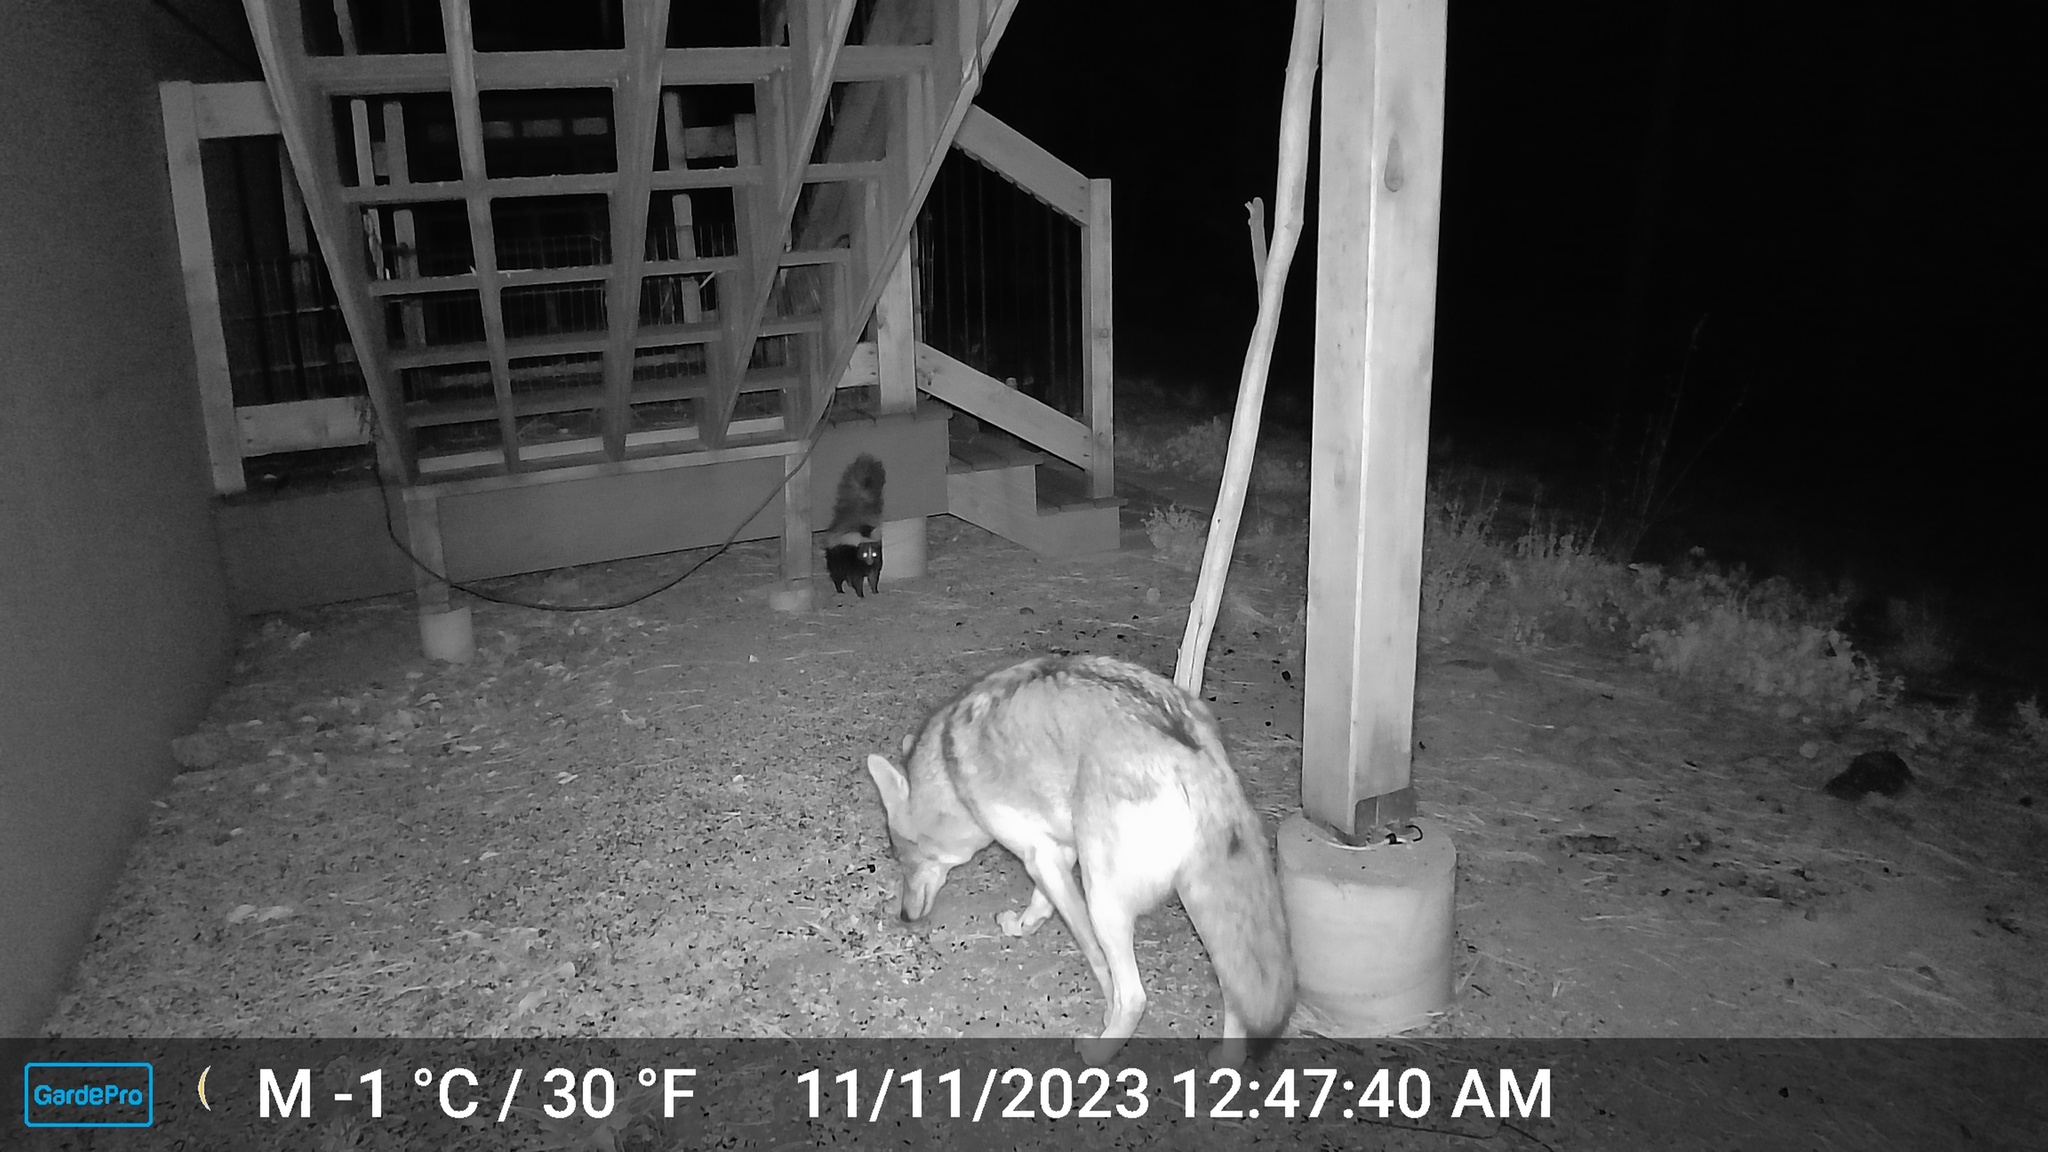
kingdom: Animalia
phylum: Chordata
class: Mammalia
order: Carnivora
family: Canidae
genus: Canis
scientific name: Canis latrans
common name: Coyote
